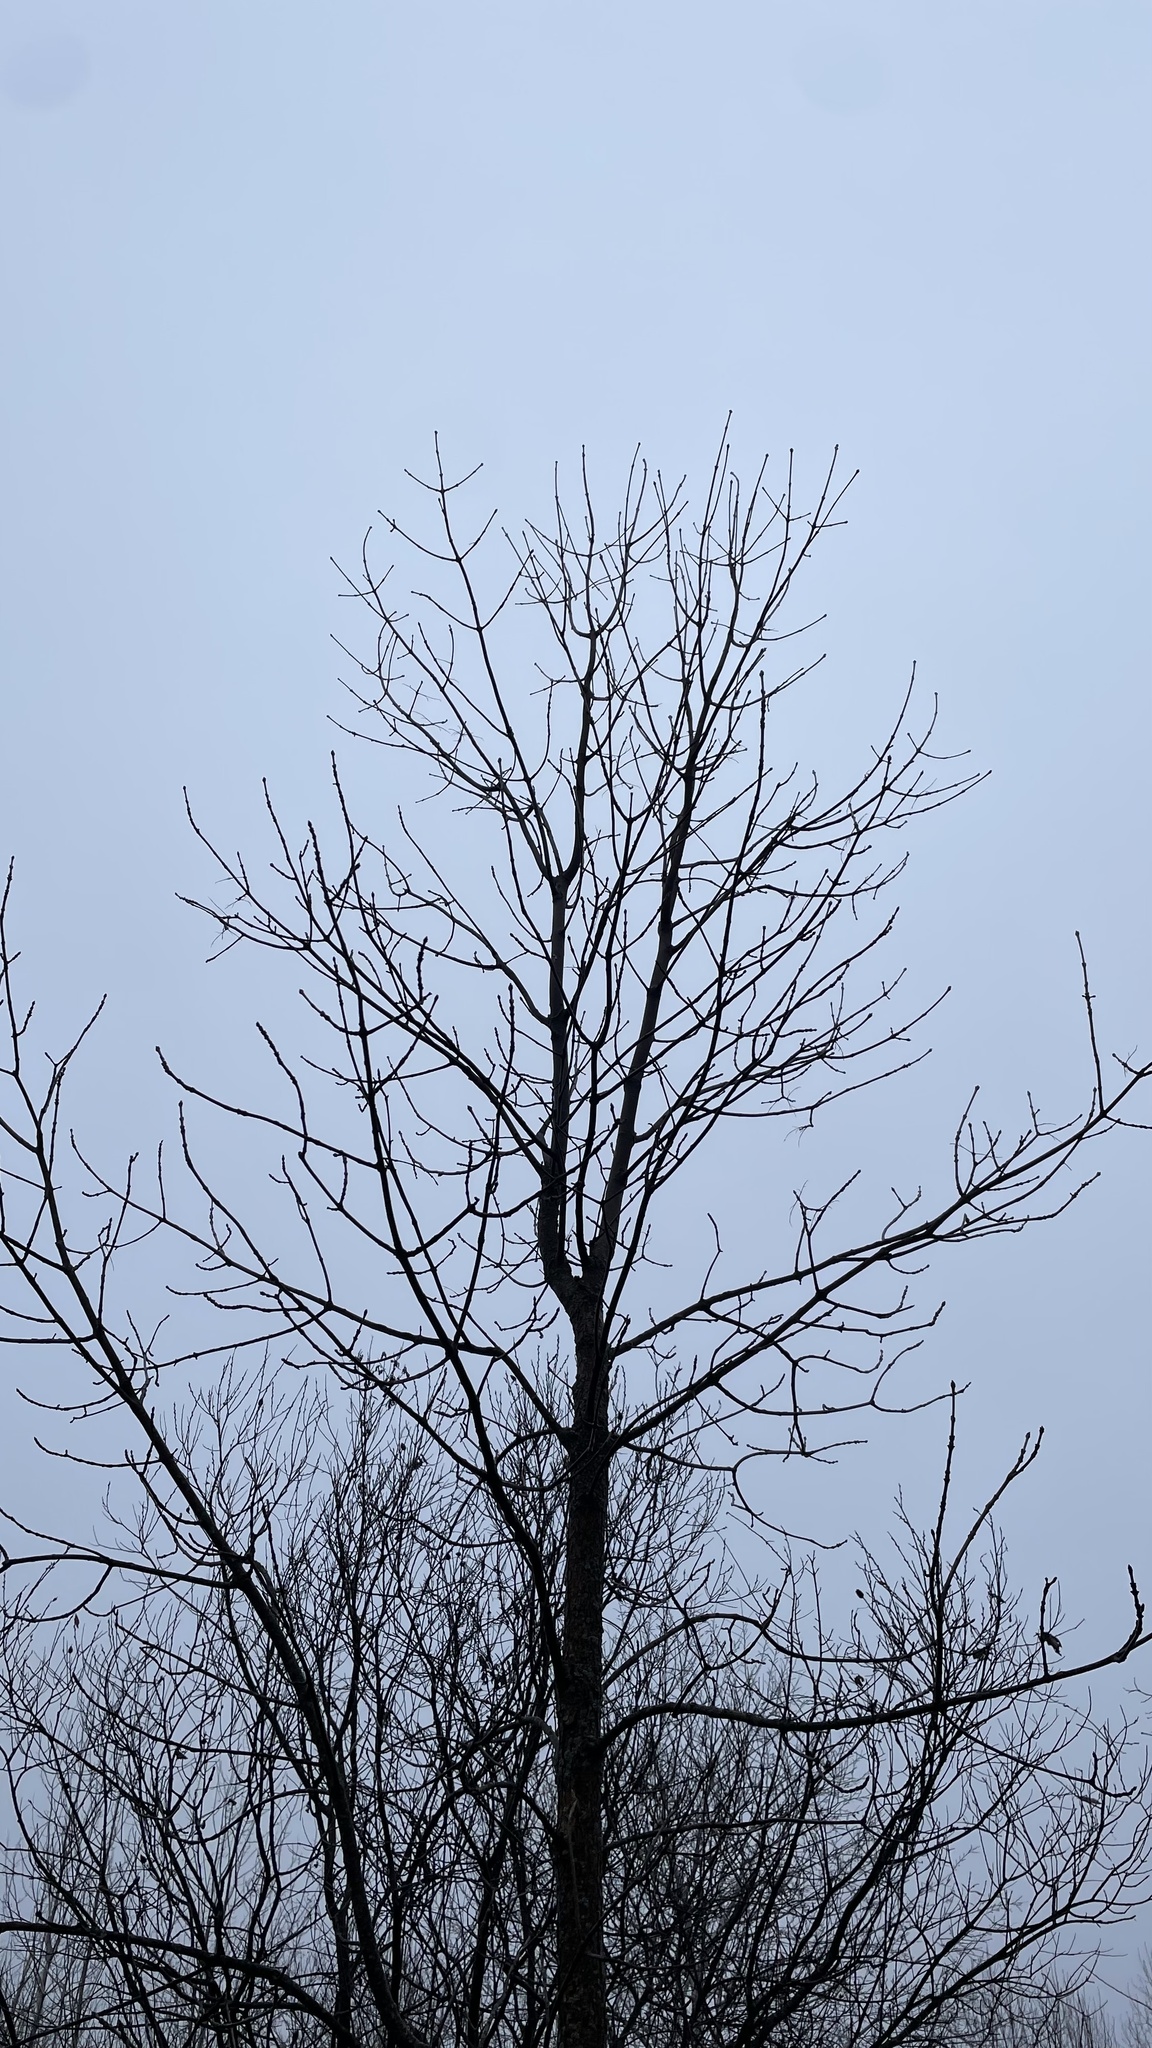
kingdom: Plantae
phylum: Tracheophyta
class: Magnoliopsida
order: Lamiales
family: Oleaceae
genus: Fraxinus
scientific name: Fraxinus nigra
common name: Black ash
